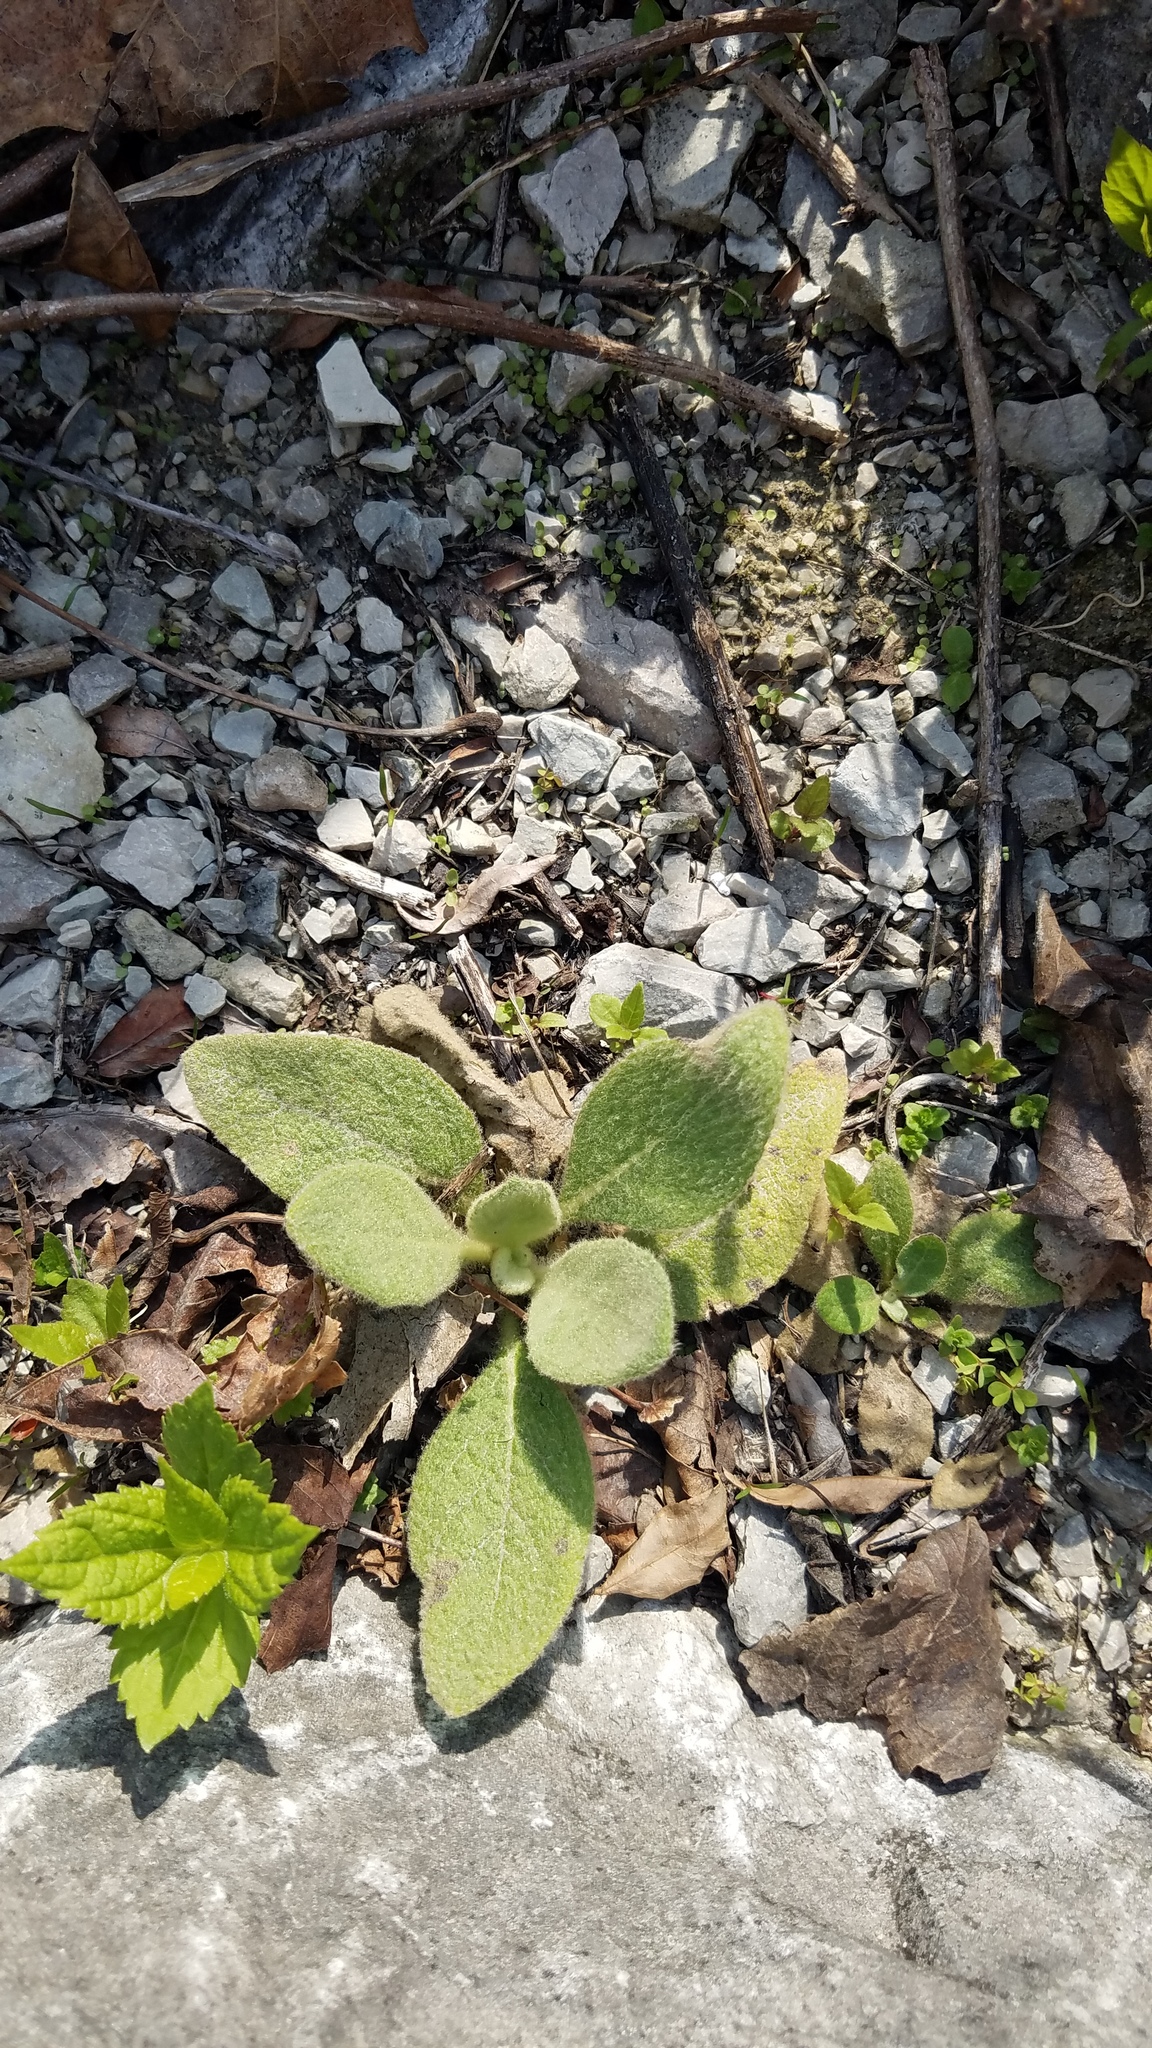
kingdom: Plantae
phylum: Tracheophyta
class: Magnoliopsida
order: Lamiales
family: Scrophulariaceae
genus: Verbascum
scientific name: Verbascum thapsus
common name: Common mullein
